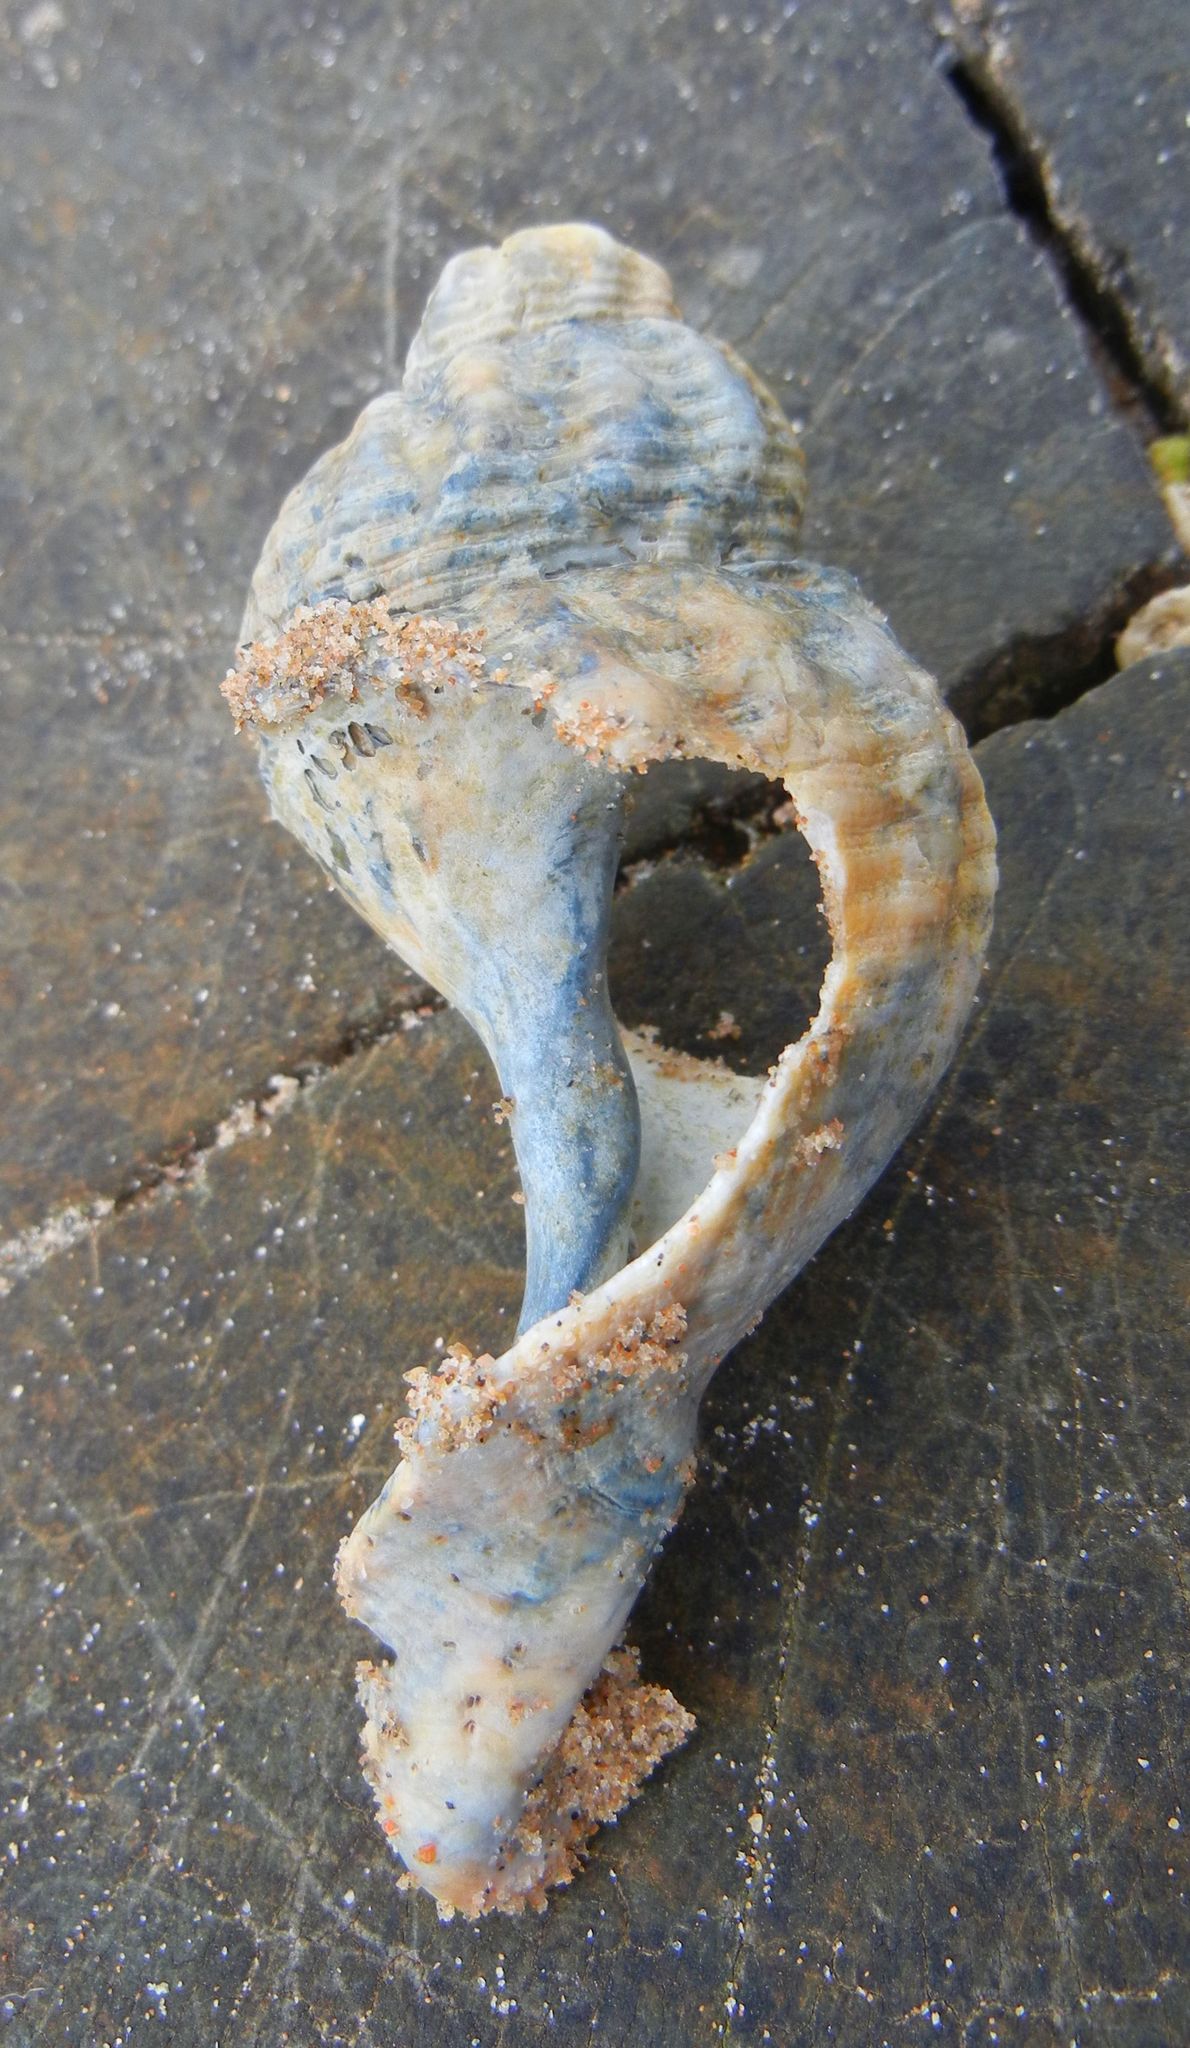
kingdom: Animalia
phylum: Mollusca
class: Gastropoda
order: Neogastropoda
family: Buccinidae
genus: Buccinum
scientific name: Buccinum undatum
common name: Common whelk
